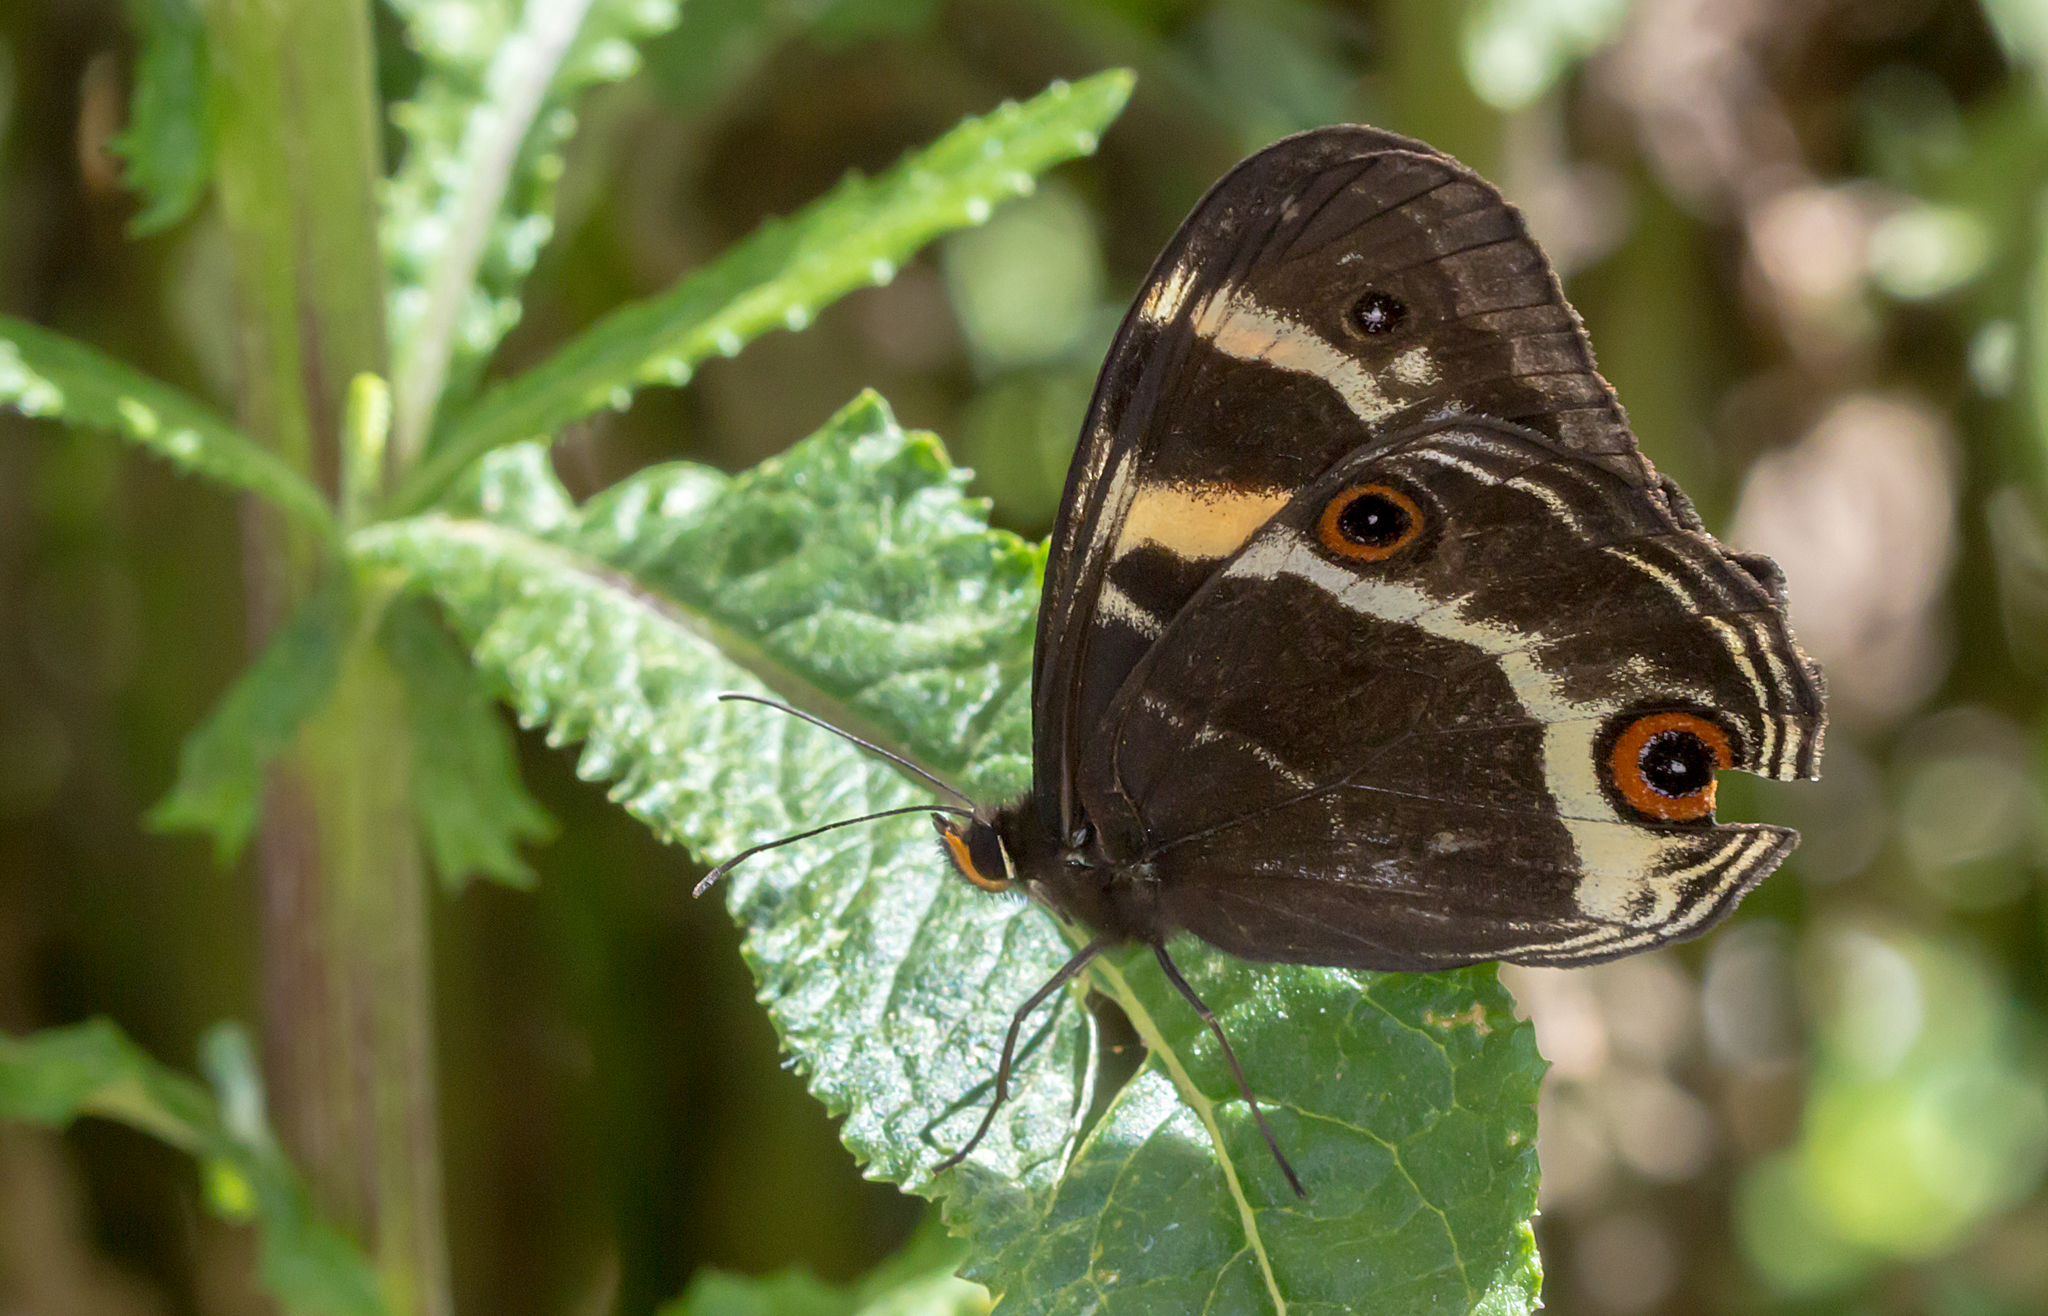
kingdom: Animalia
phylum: Arthropoda
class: Insecta
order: Lepidoptera
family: Nymphalidae
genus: Tisiphone
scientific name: Tisiphone abeona
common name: Swordgrass brown
